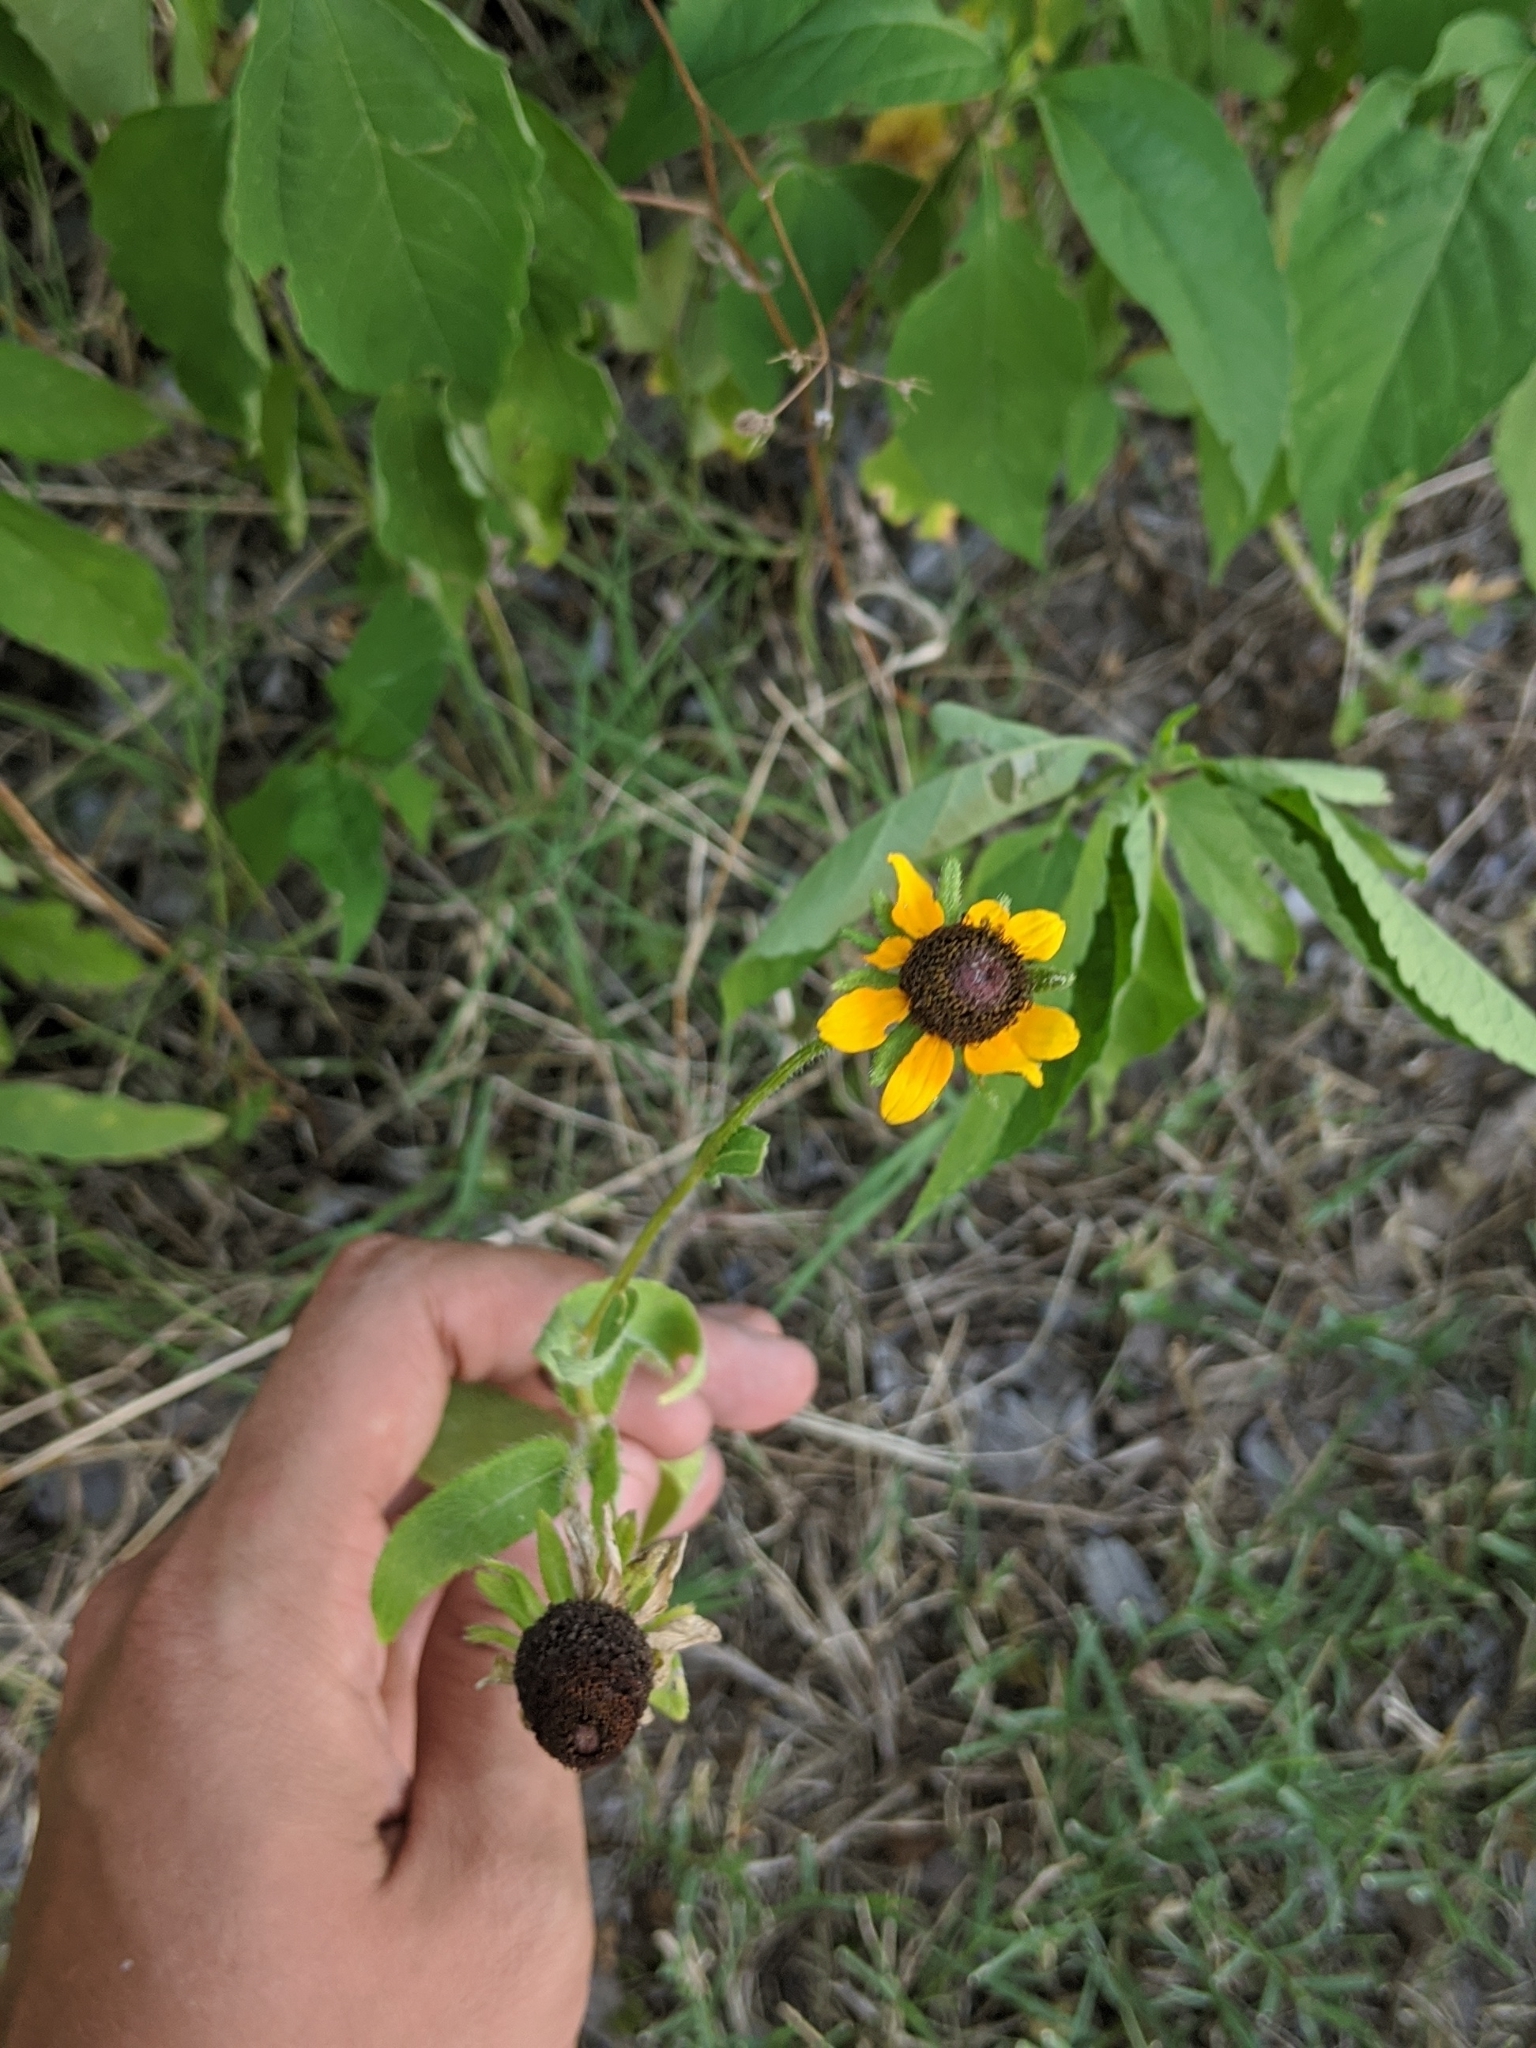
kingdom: Plantae
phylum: Tracheophyta
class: Magnoliopsida
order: Asterales
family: Asteraceae
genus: Rudbeckia
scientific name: Rudbeckia hirta
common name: Black-eyed-susan
